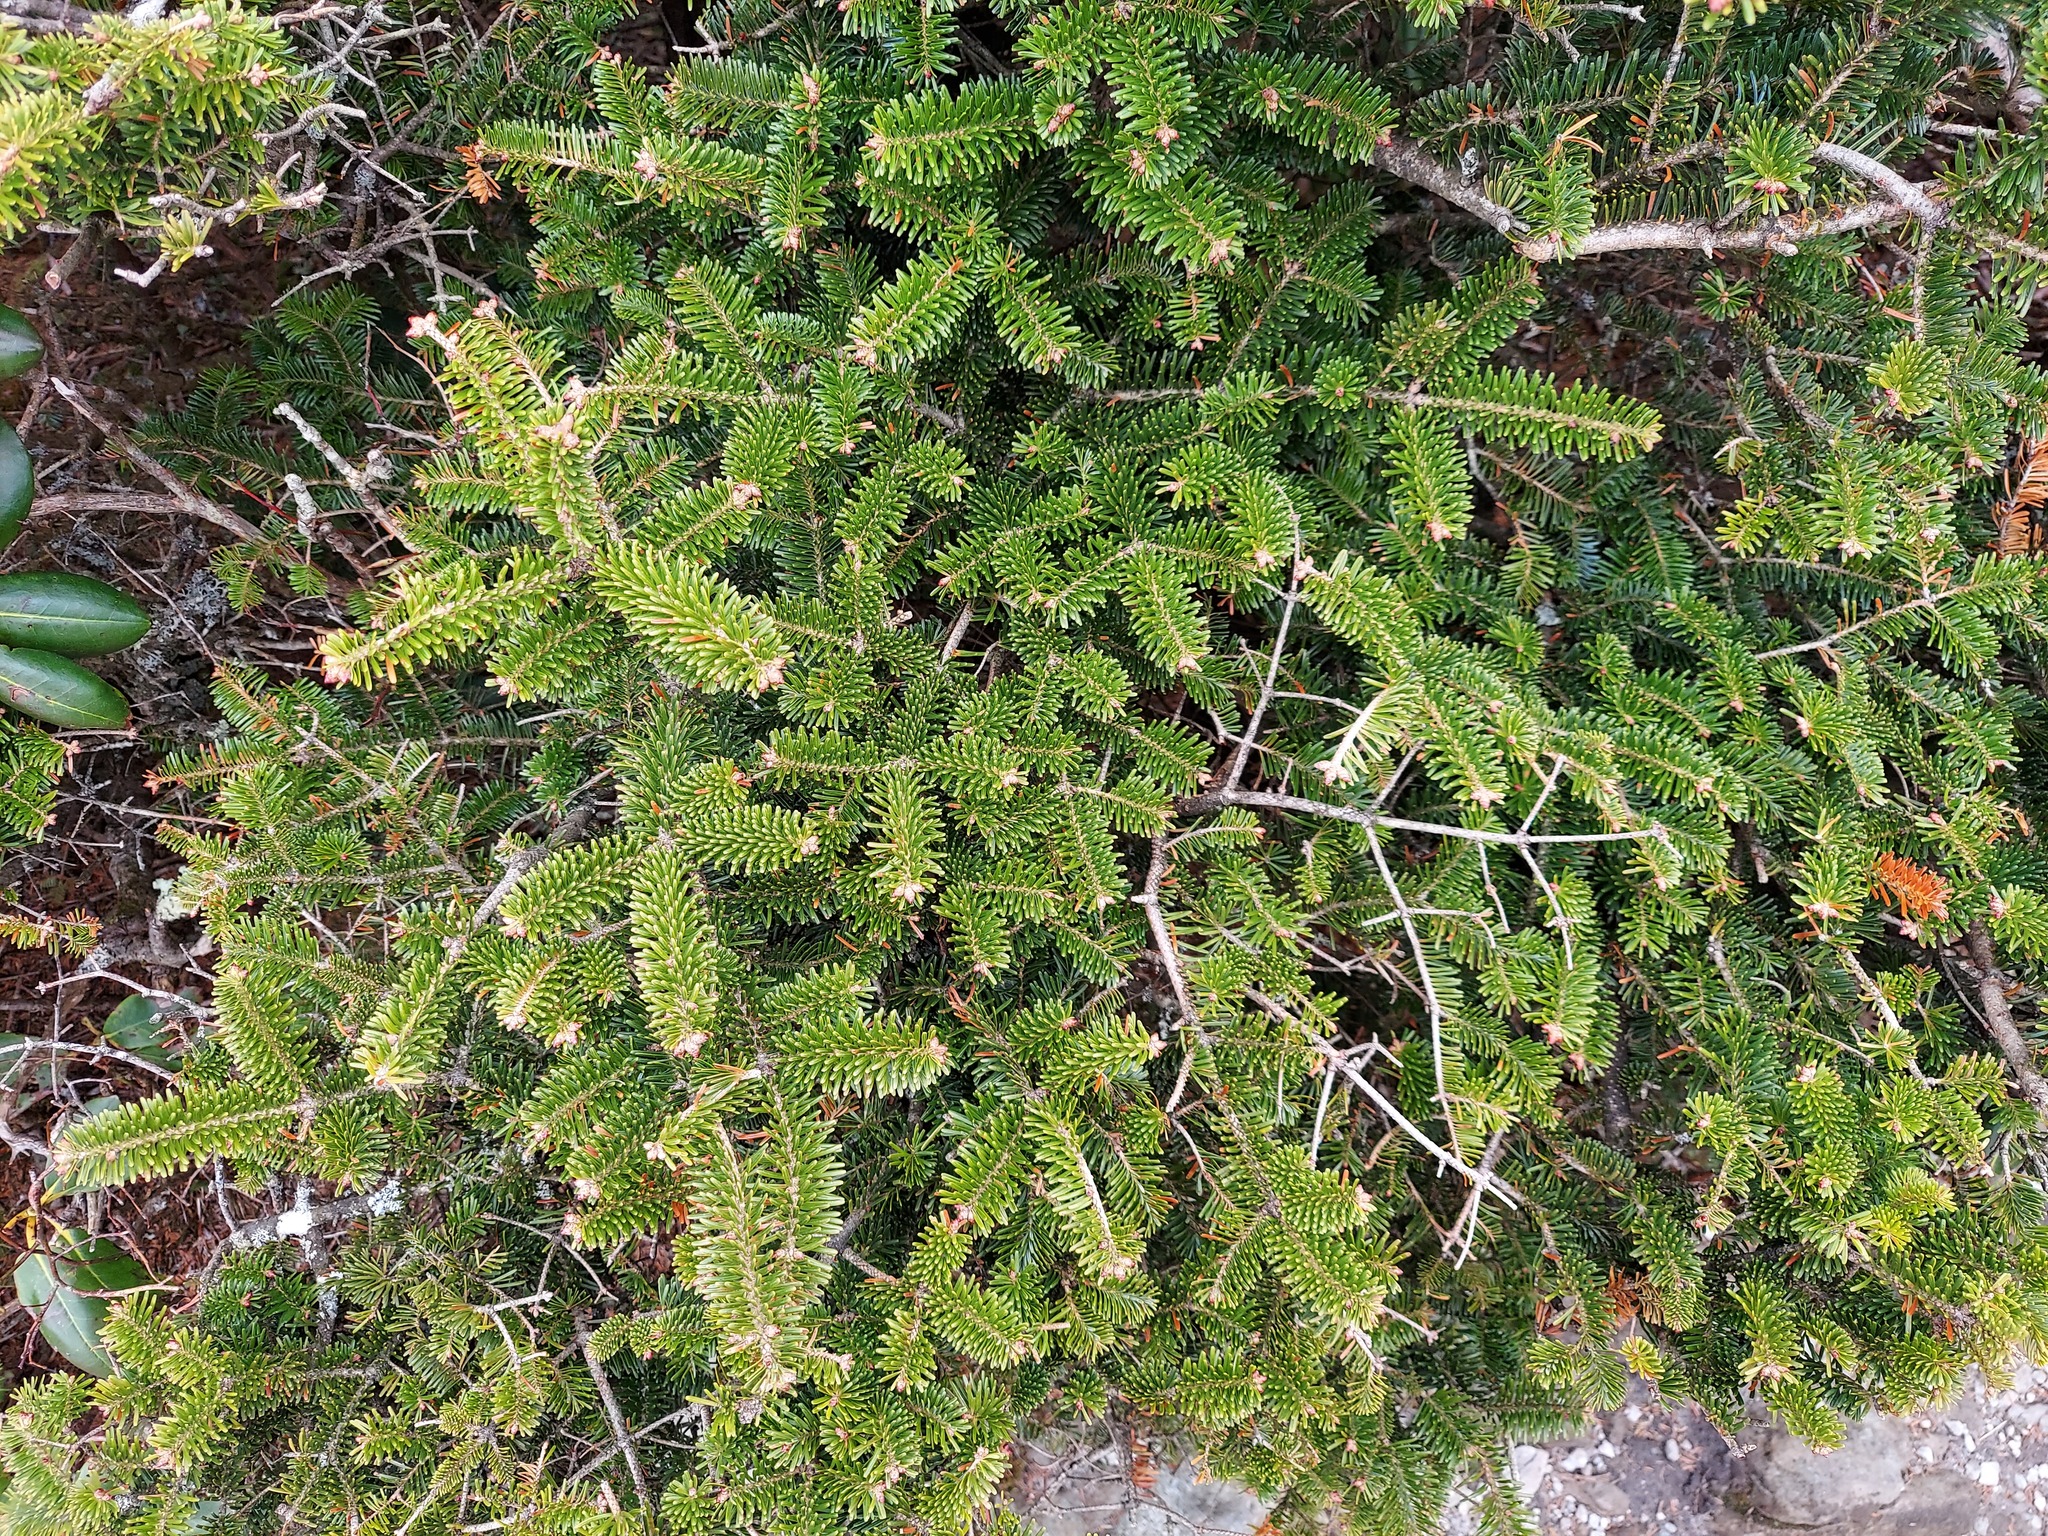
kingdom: Plantae
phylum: Tracheophyta
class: Pinopsida
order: Pinales
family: Pinaceae
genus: Abies
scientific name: Abies fraseri
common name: Fraser fir
